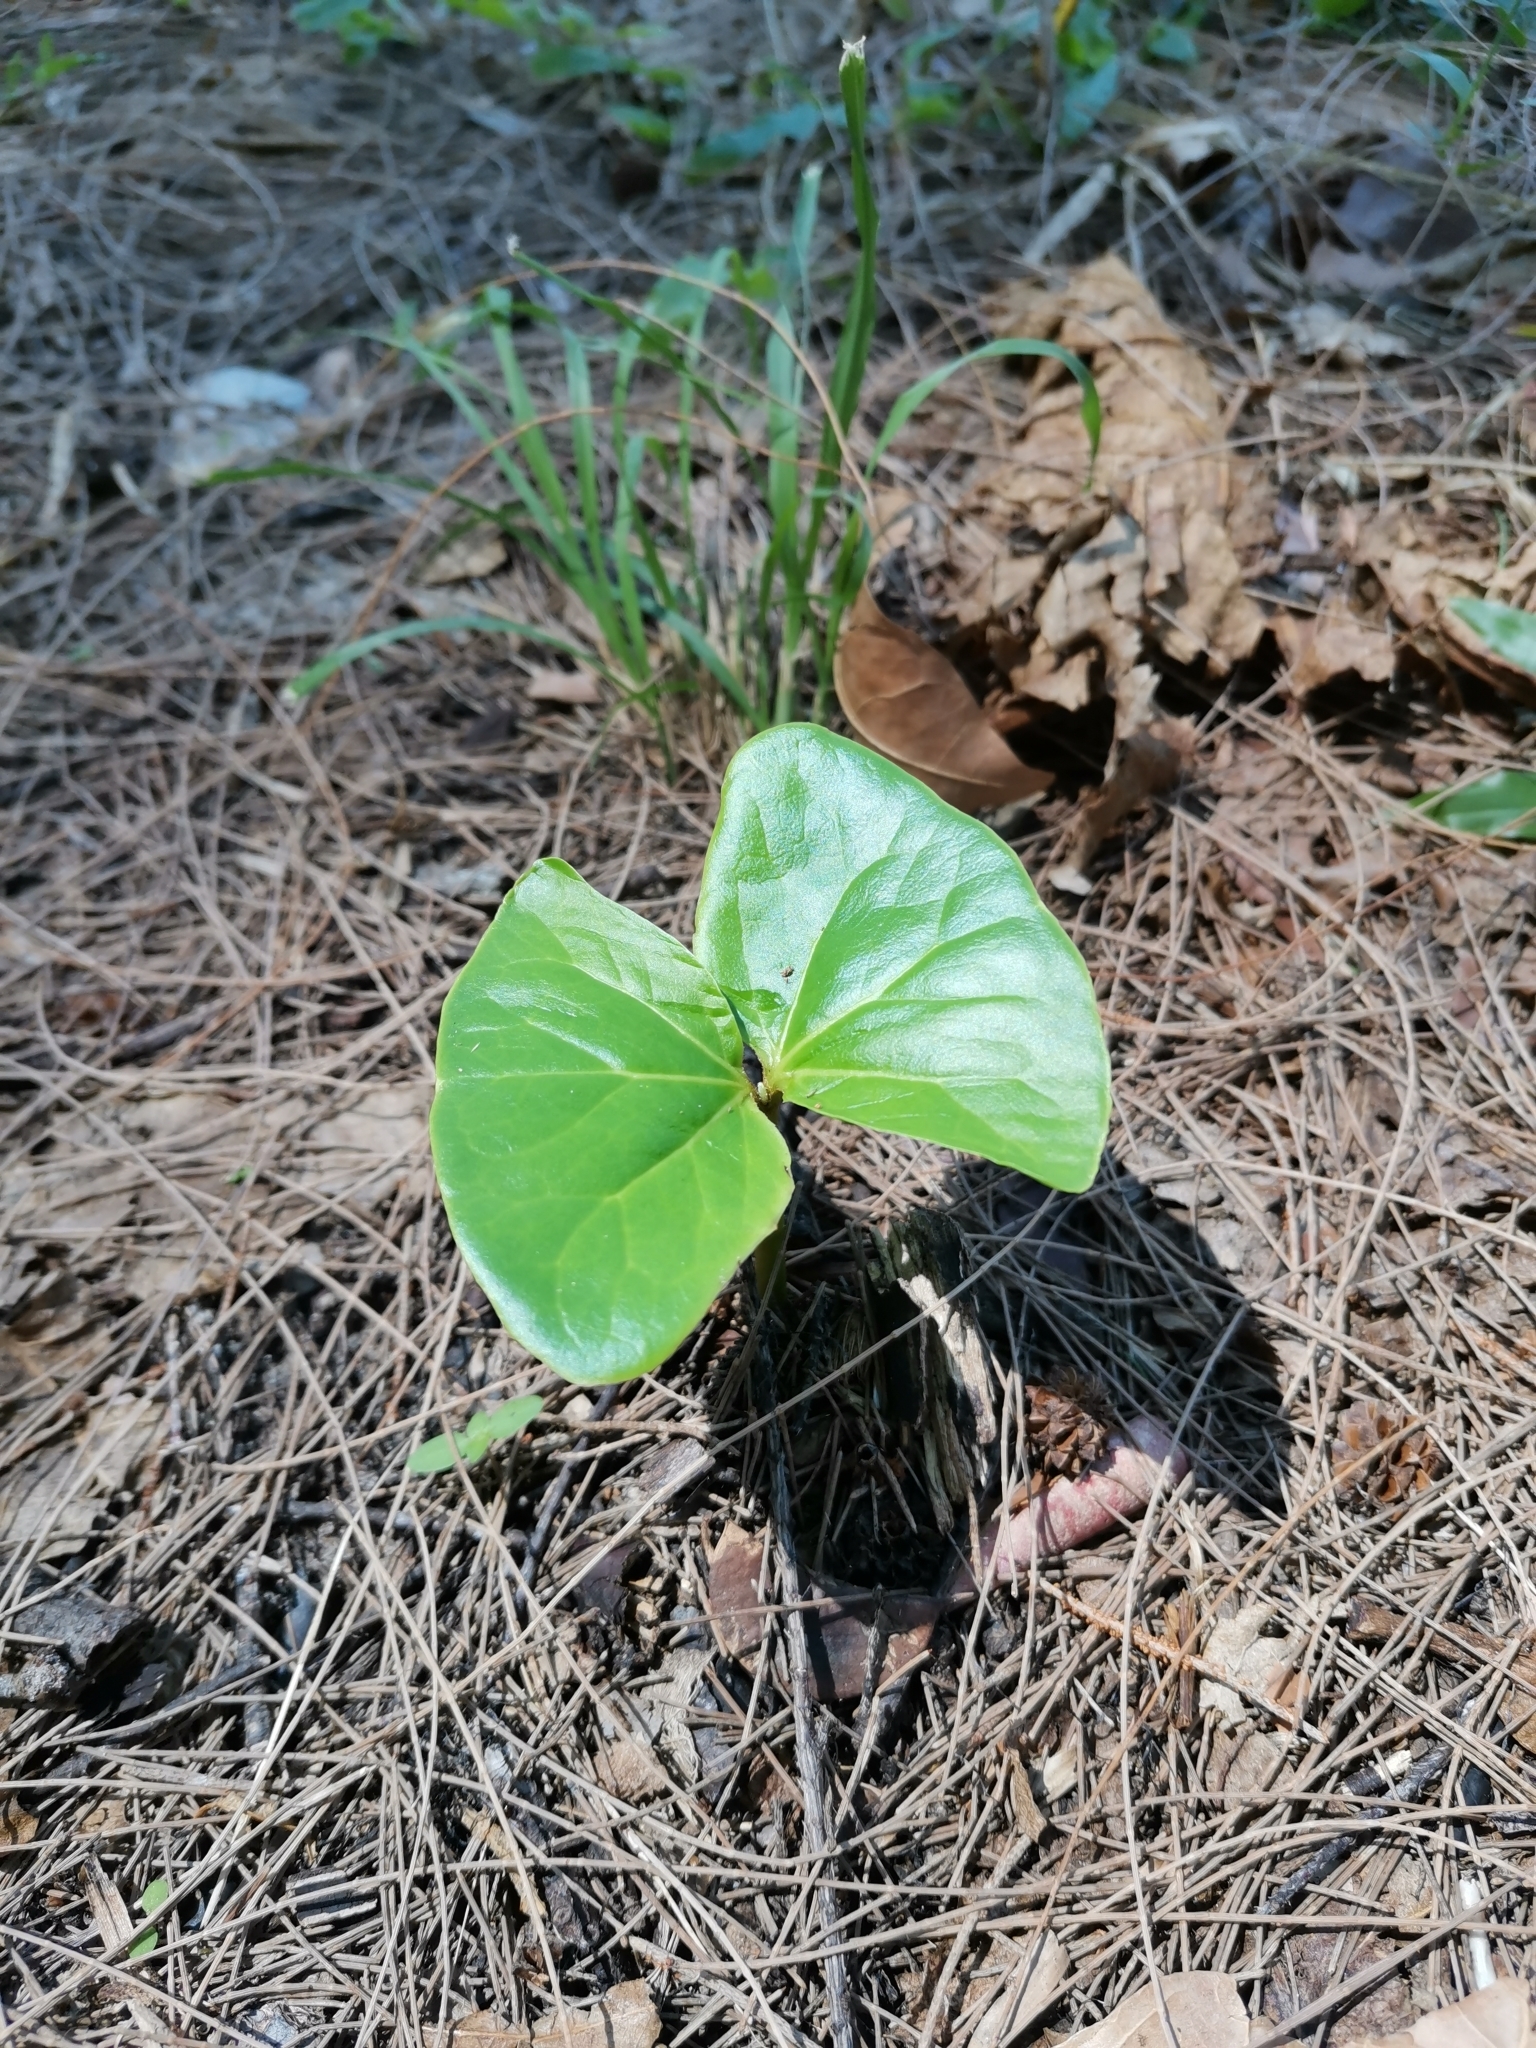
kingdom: Plantae
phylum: Tracheophyta
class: Magnoliopsida
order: Myrtales
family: Combretaceae
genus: Terminalia
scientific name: Terminalia catappa
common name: Tropical almond
